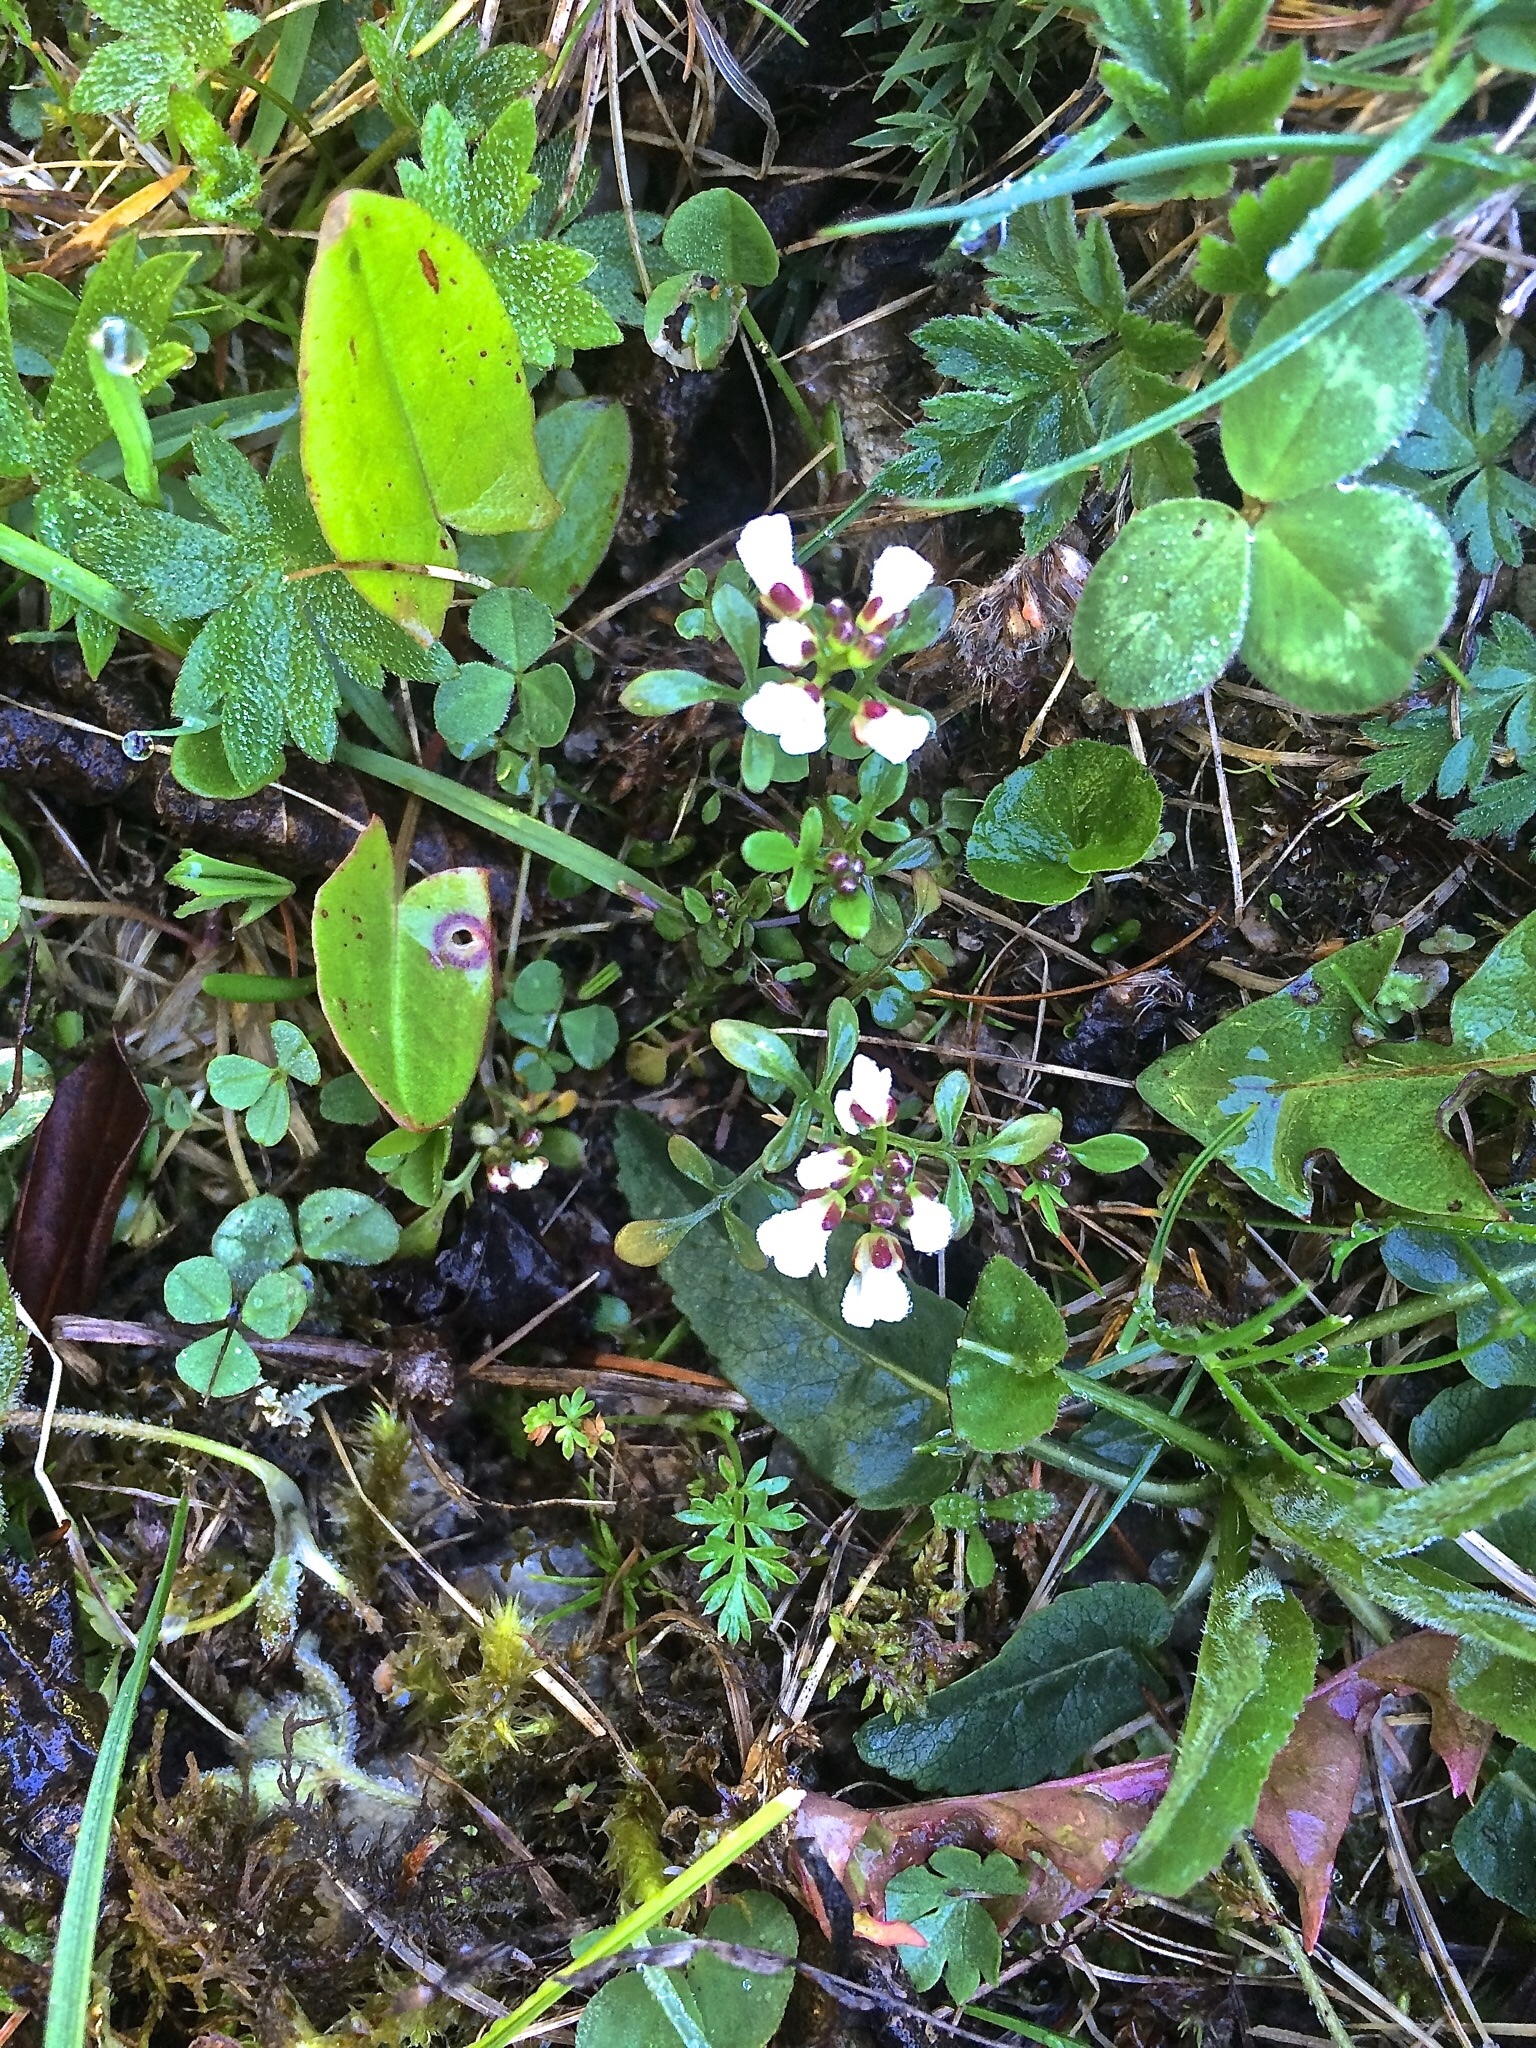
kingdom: Plantae
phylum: Tracheophyta
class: Magnoliopsida
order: Brassicales
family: Brassicaceae
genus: Cardamine
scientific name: Cardamine resedifolia
